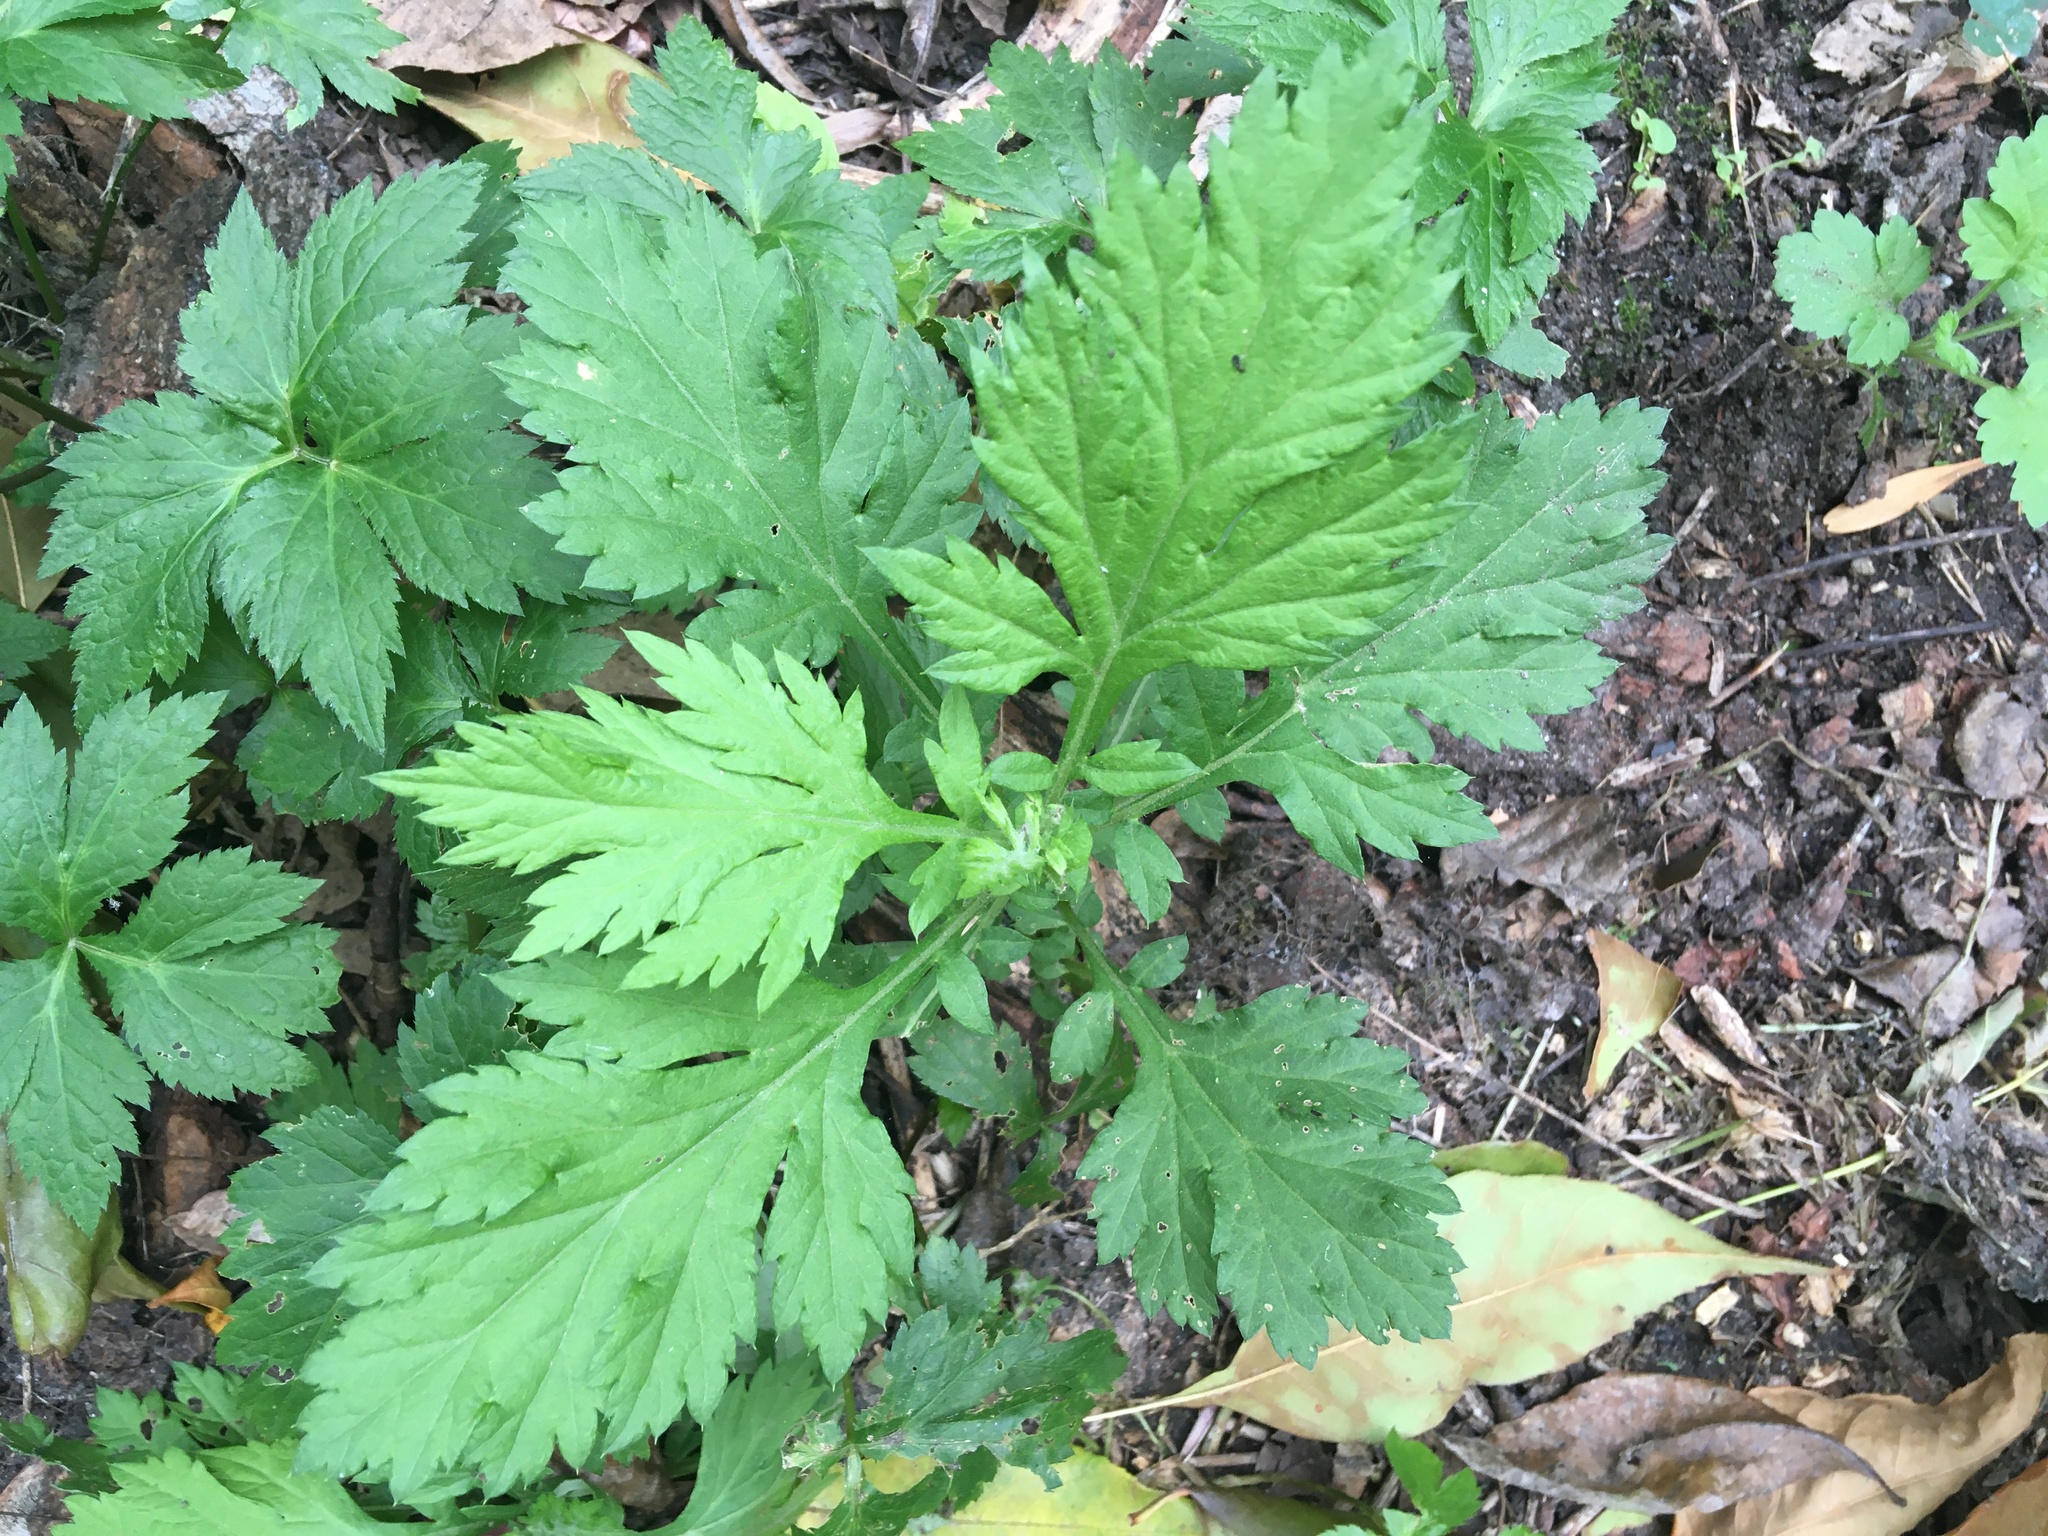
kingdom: Plantae
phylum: Tracheophyta
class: Magnoliopsida
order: Asterales
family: Asteraceae
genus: Artemisia
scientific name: Artemisia vulgaris
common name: Mugwort
